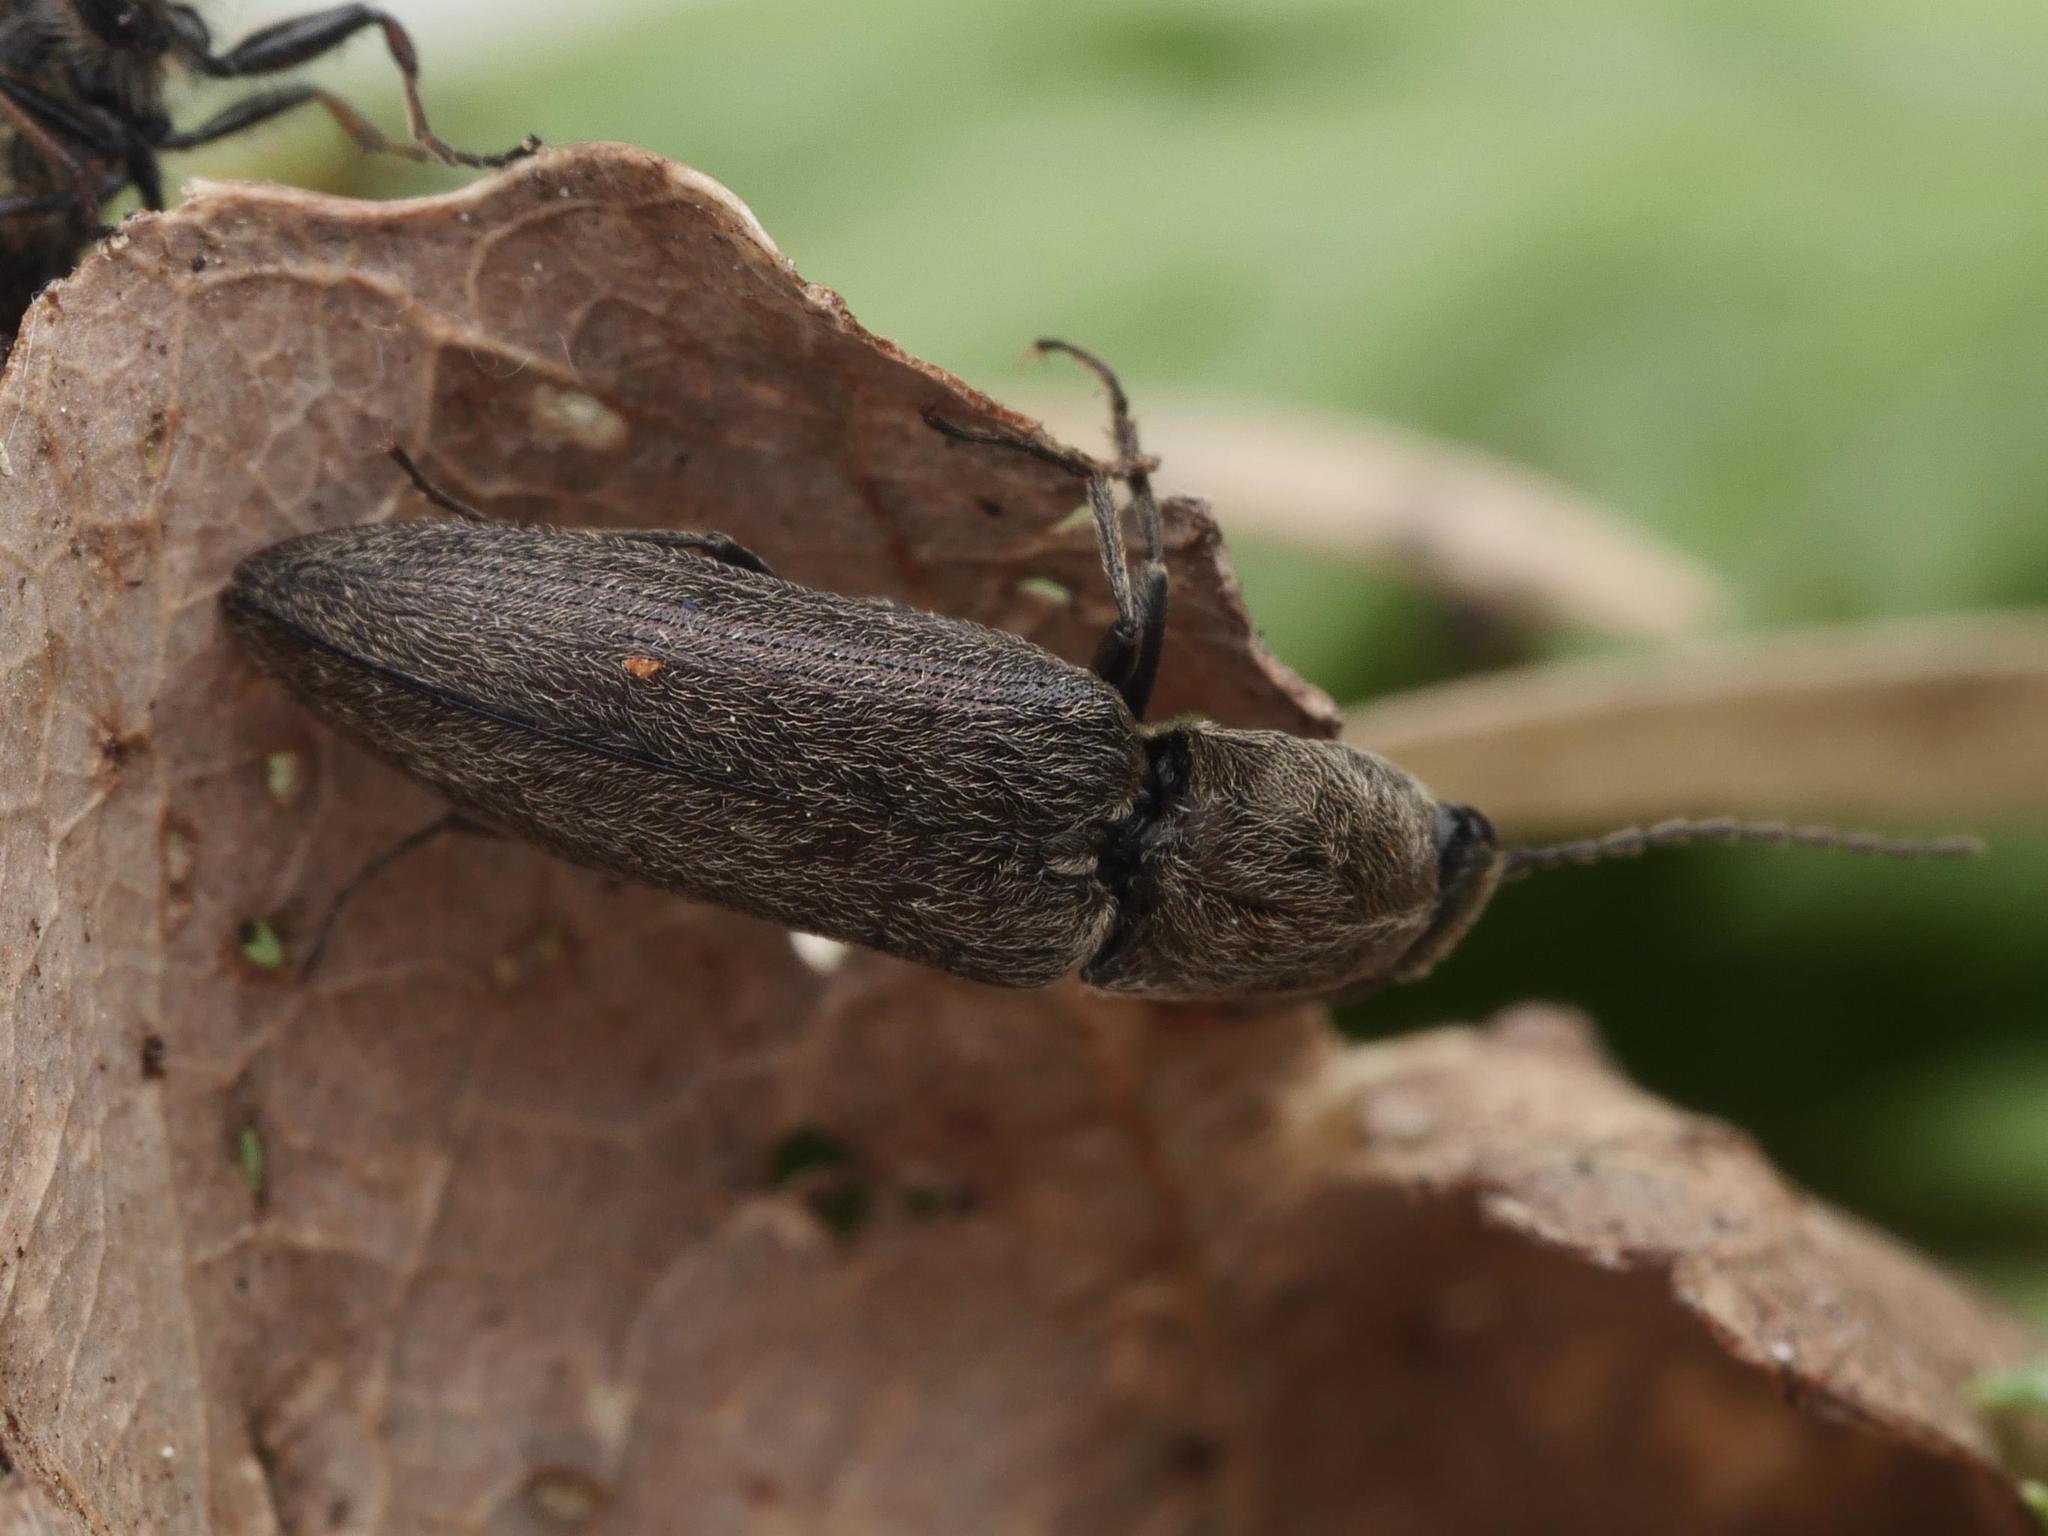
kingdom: Animalia
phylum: Arthropoda
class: Insecta
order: Coleoptera
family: Elateridae
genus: Cidnopus
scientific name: Cidnopus aeruginosus
